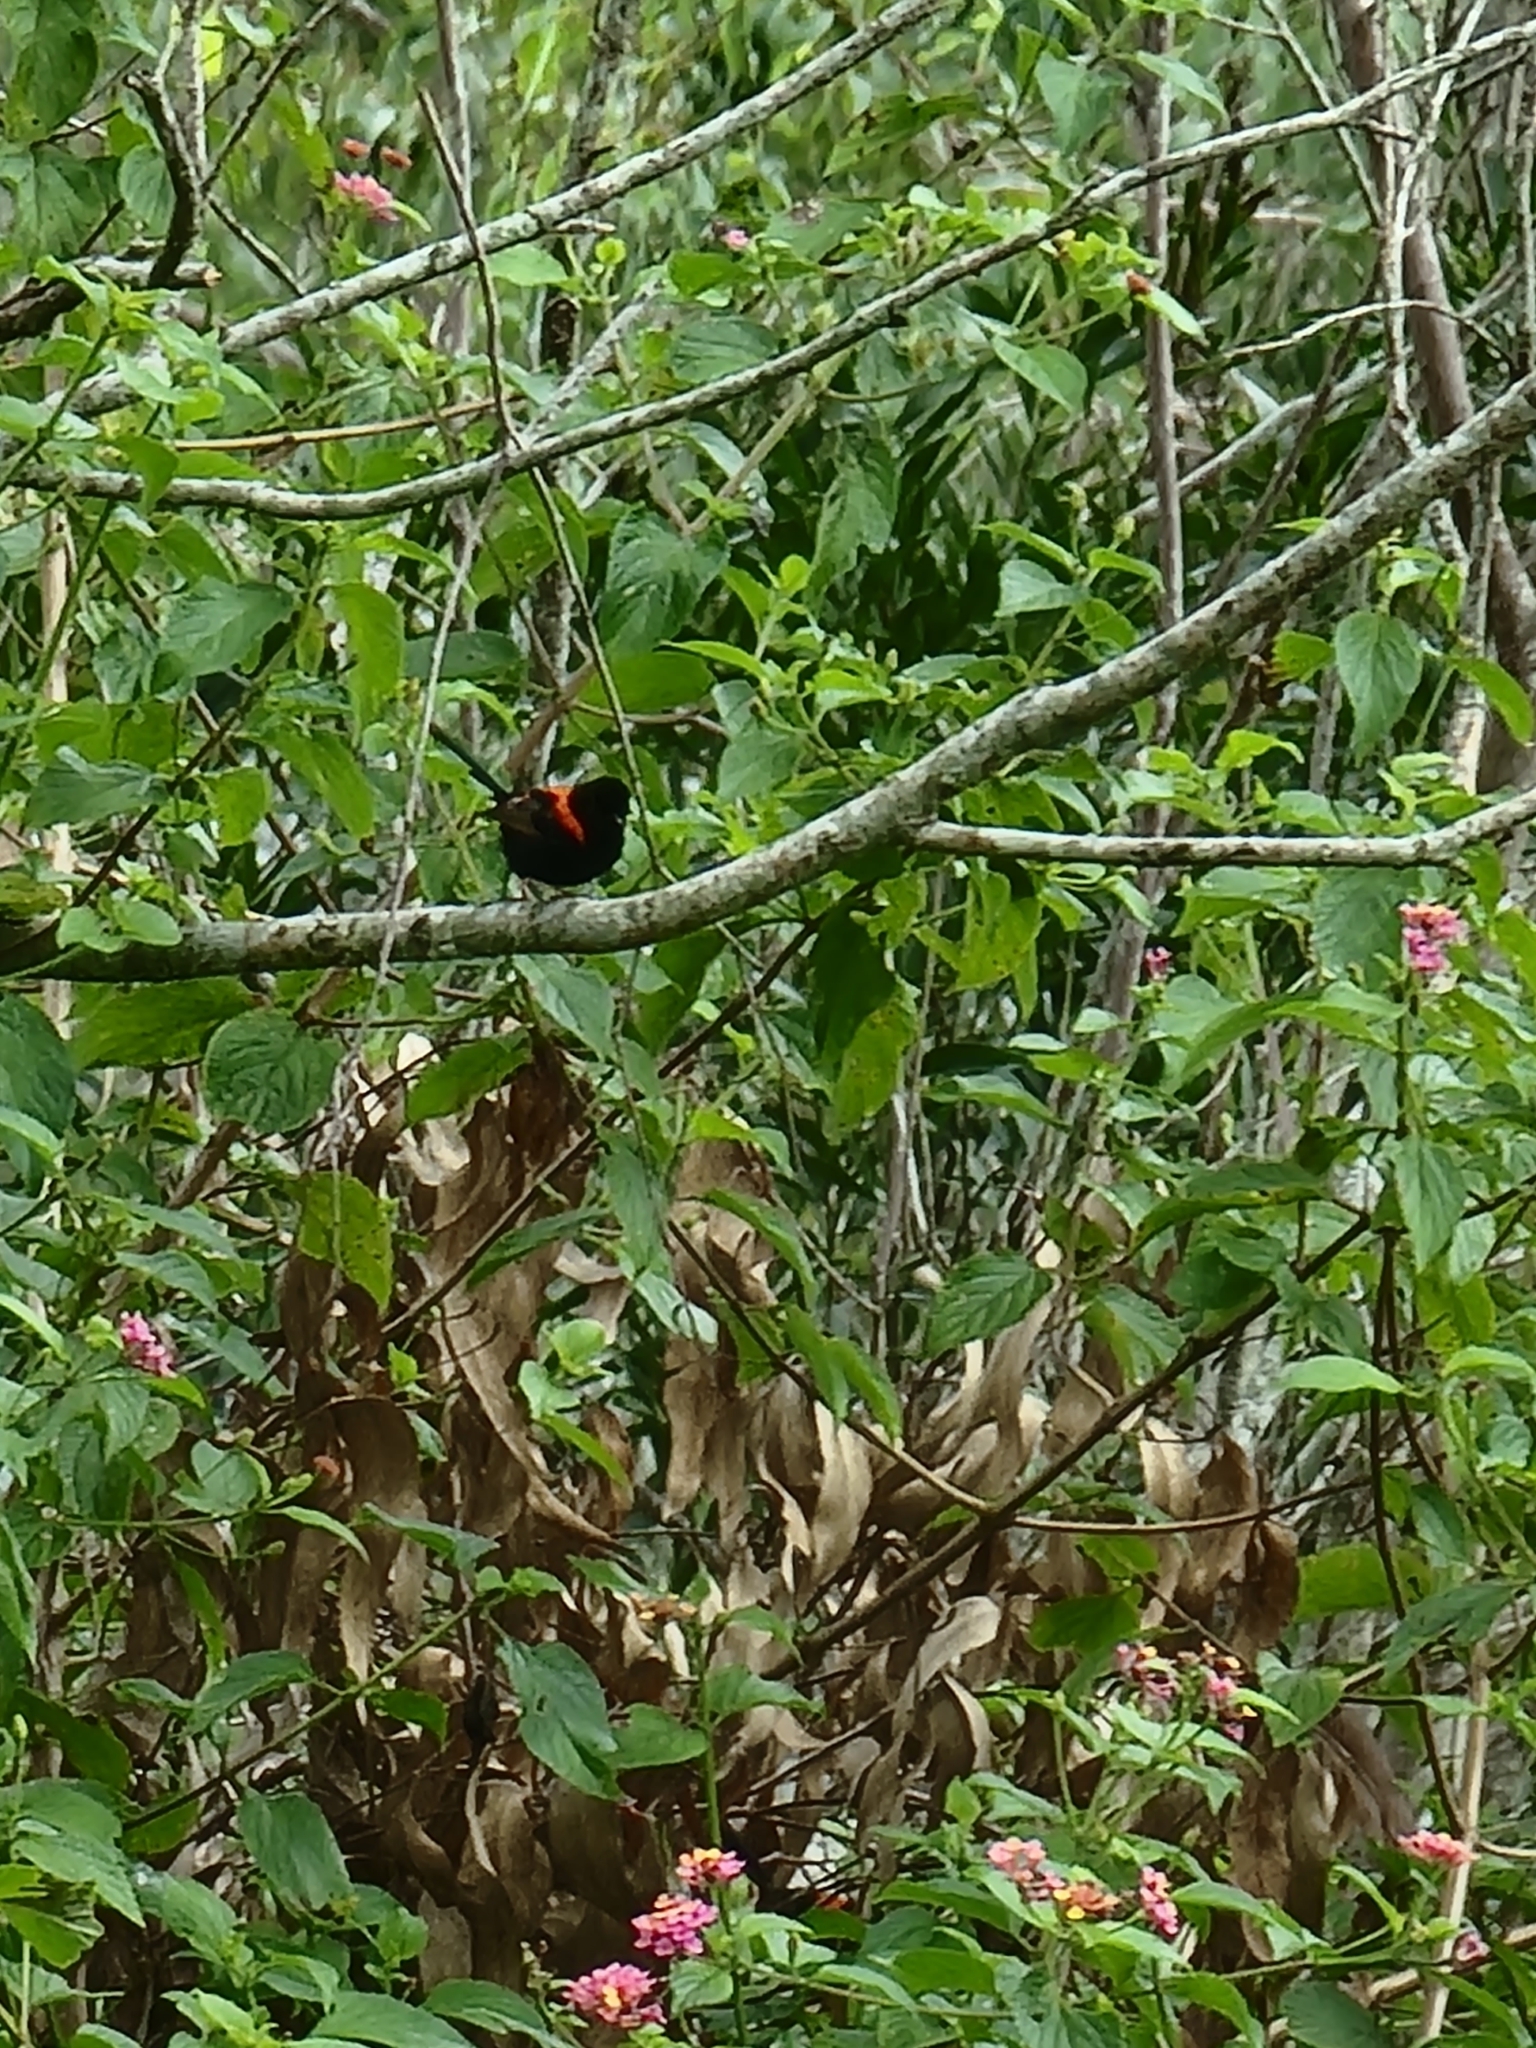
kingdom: Animalia
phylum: Chordata
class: Aves
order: Passeriformes
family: Maluridae
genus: Malurus
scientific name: Malurus melanocephalus
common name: Red-backed fairywren
